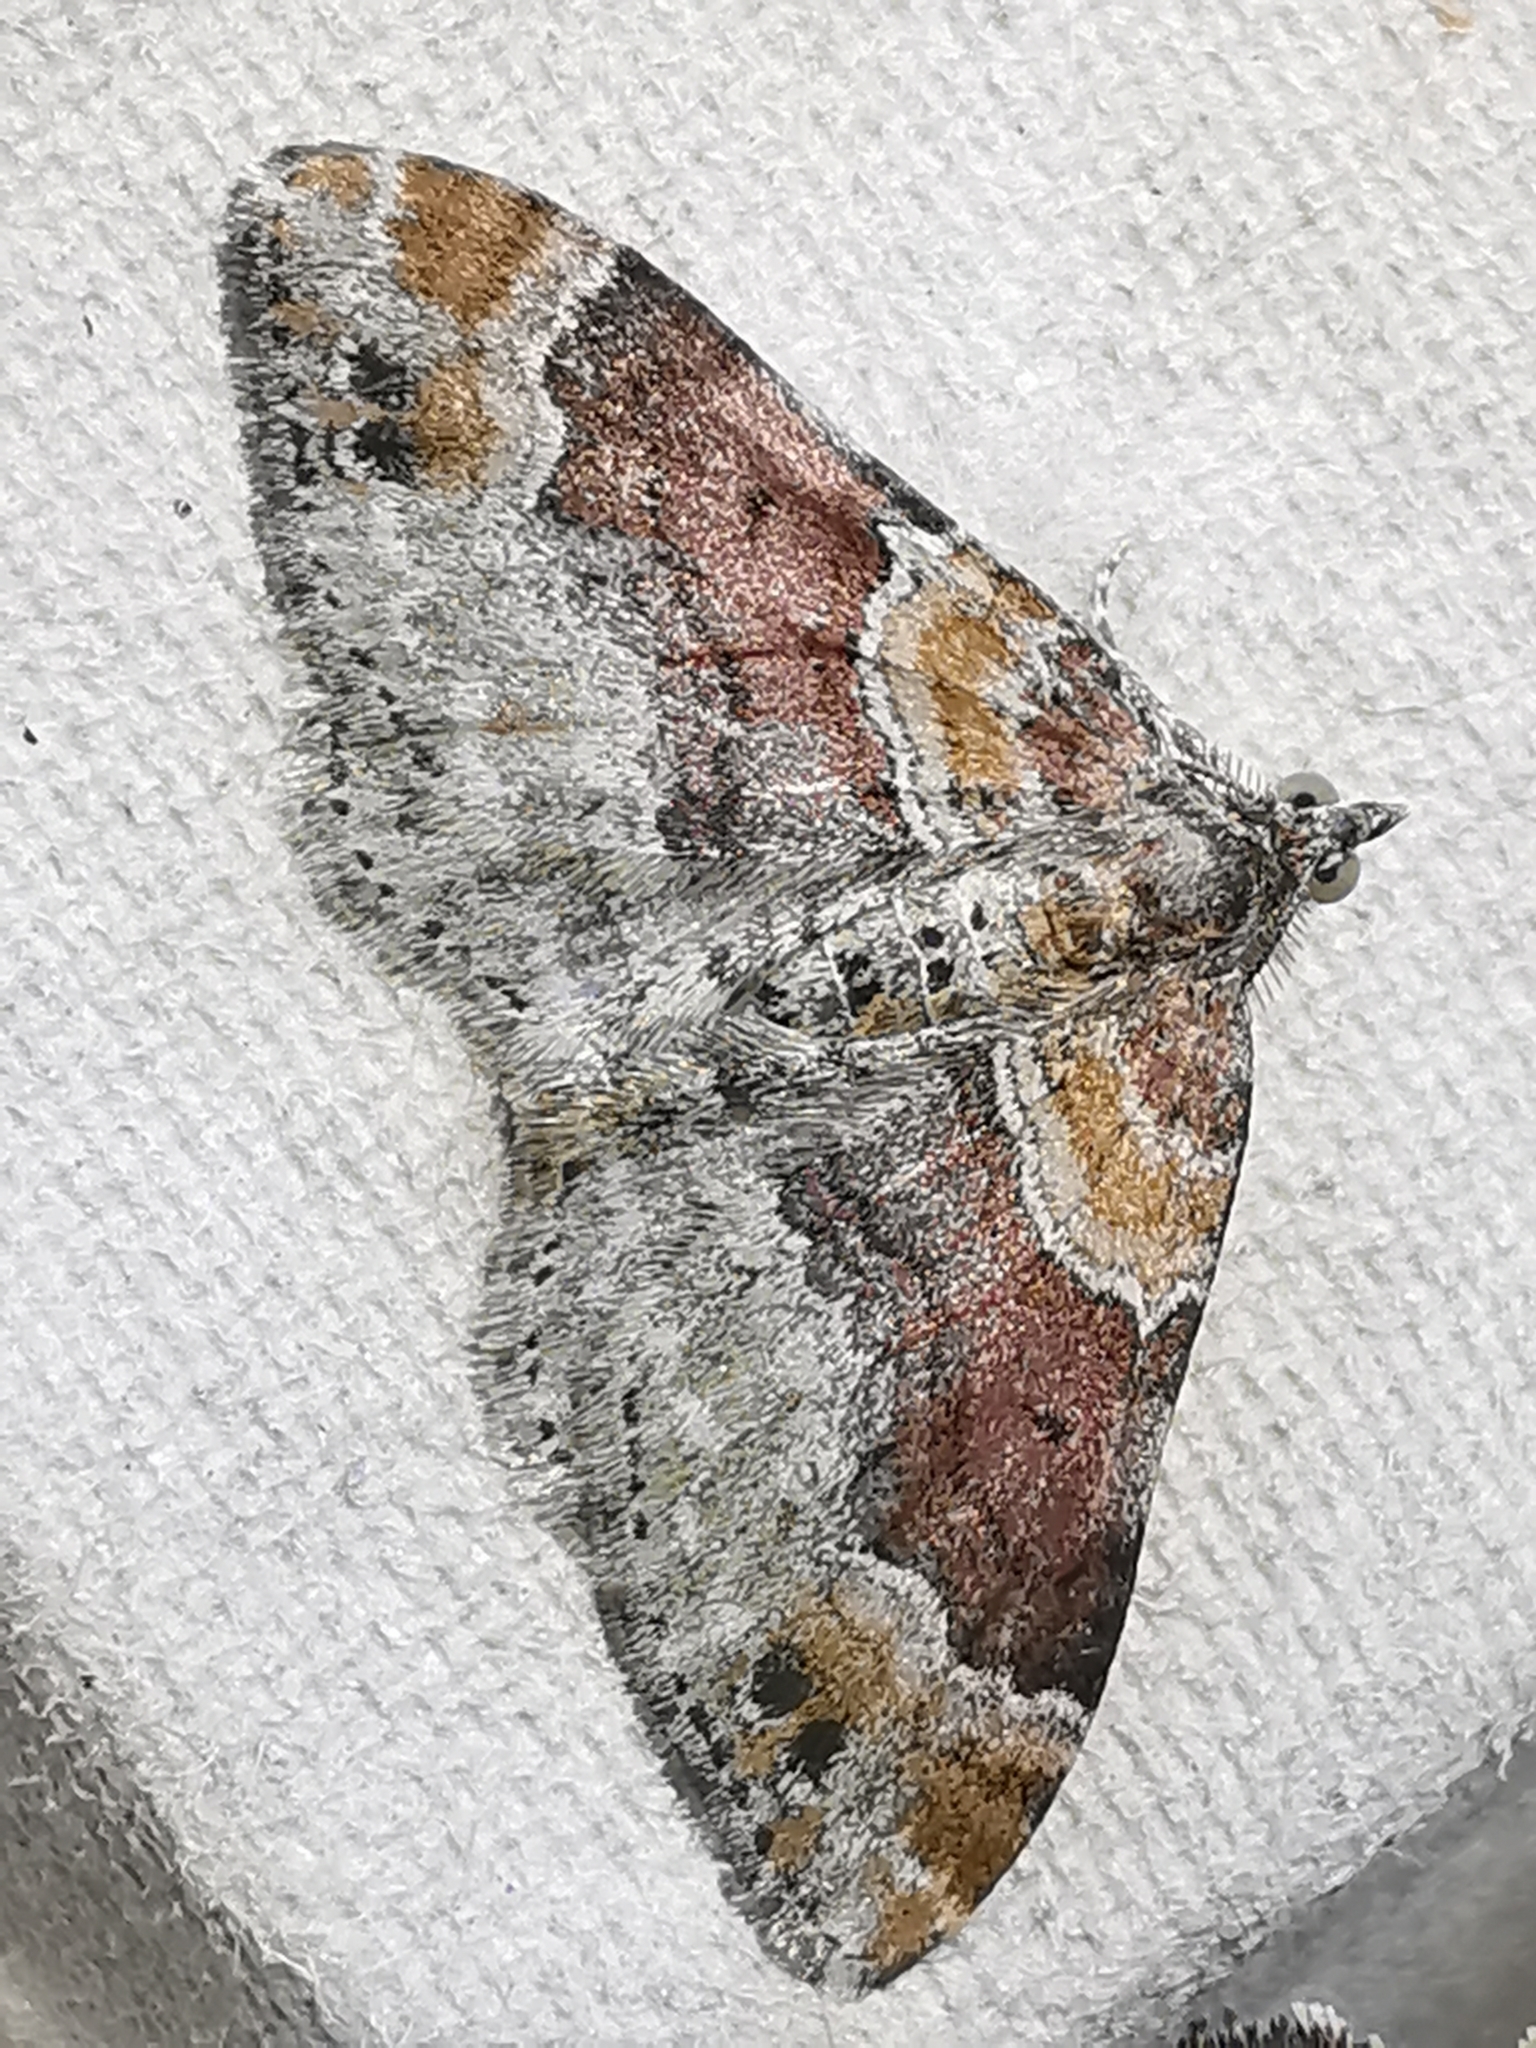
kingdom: Animalia
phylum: Arthropoda
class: Insecta
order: Lepidoptera
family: Geometridae
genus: Xanthorhoe
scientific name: Xanthorhoe spadicearia
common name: Red twin-spot carpet
